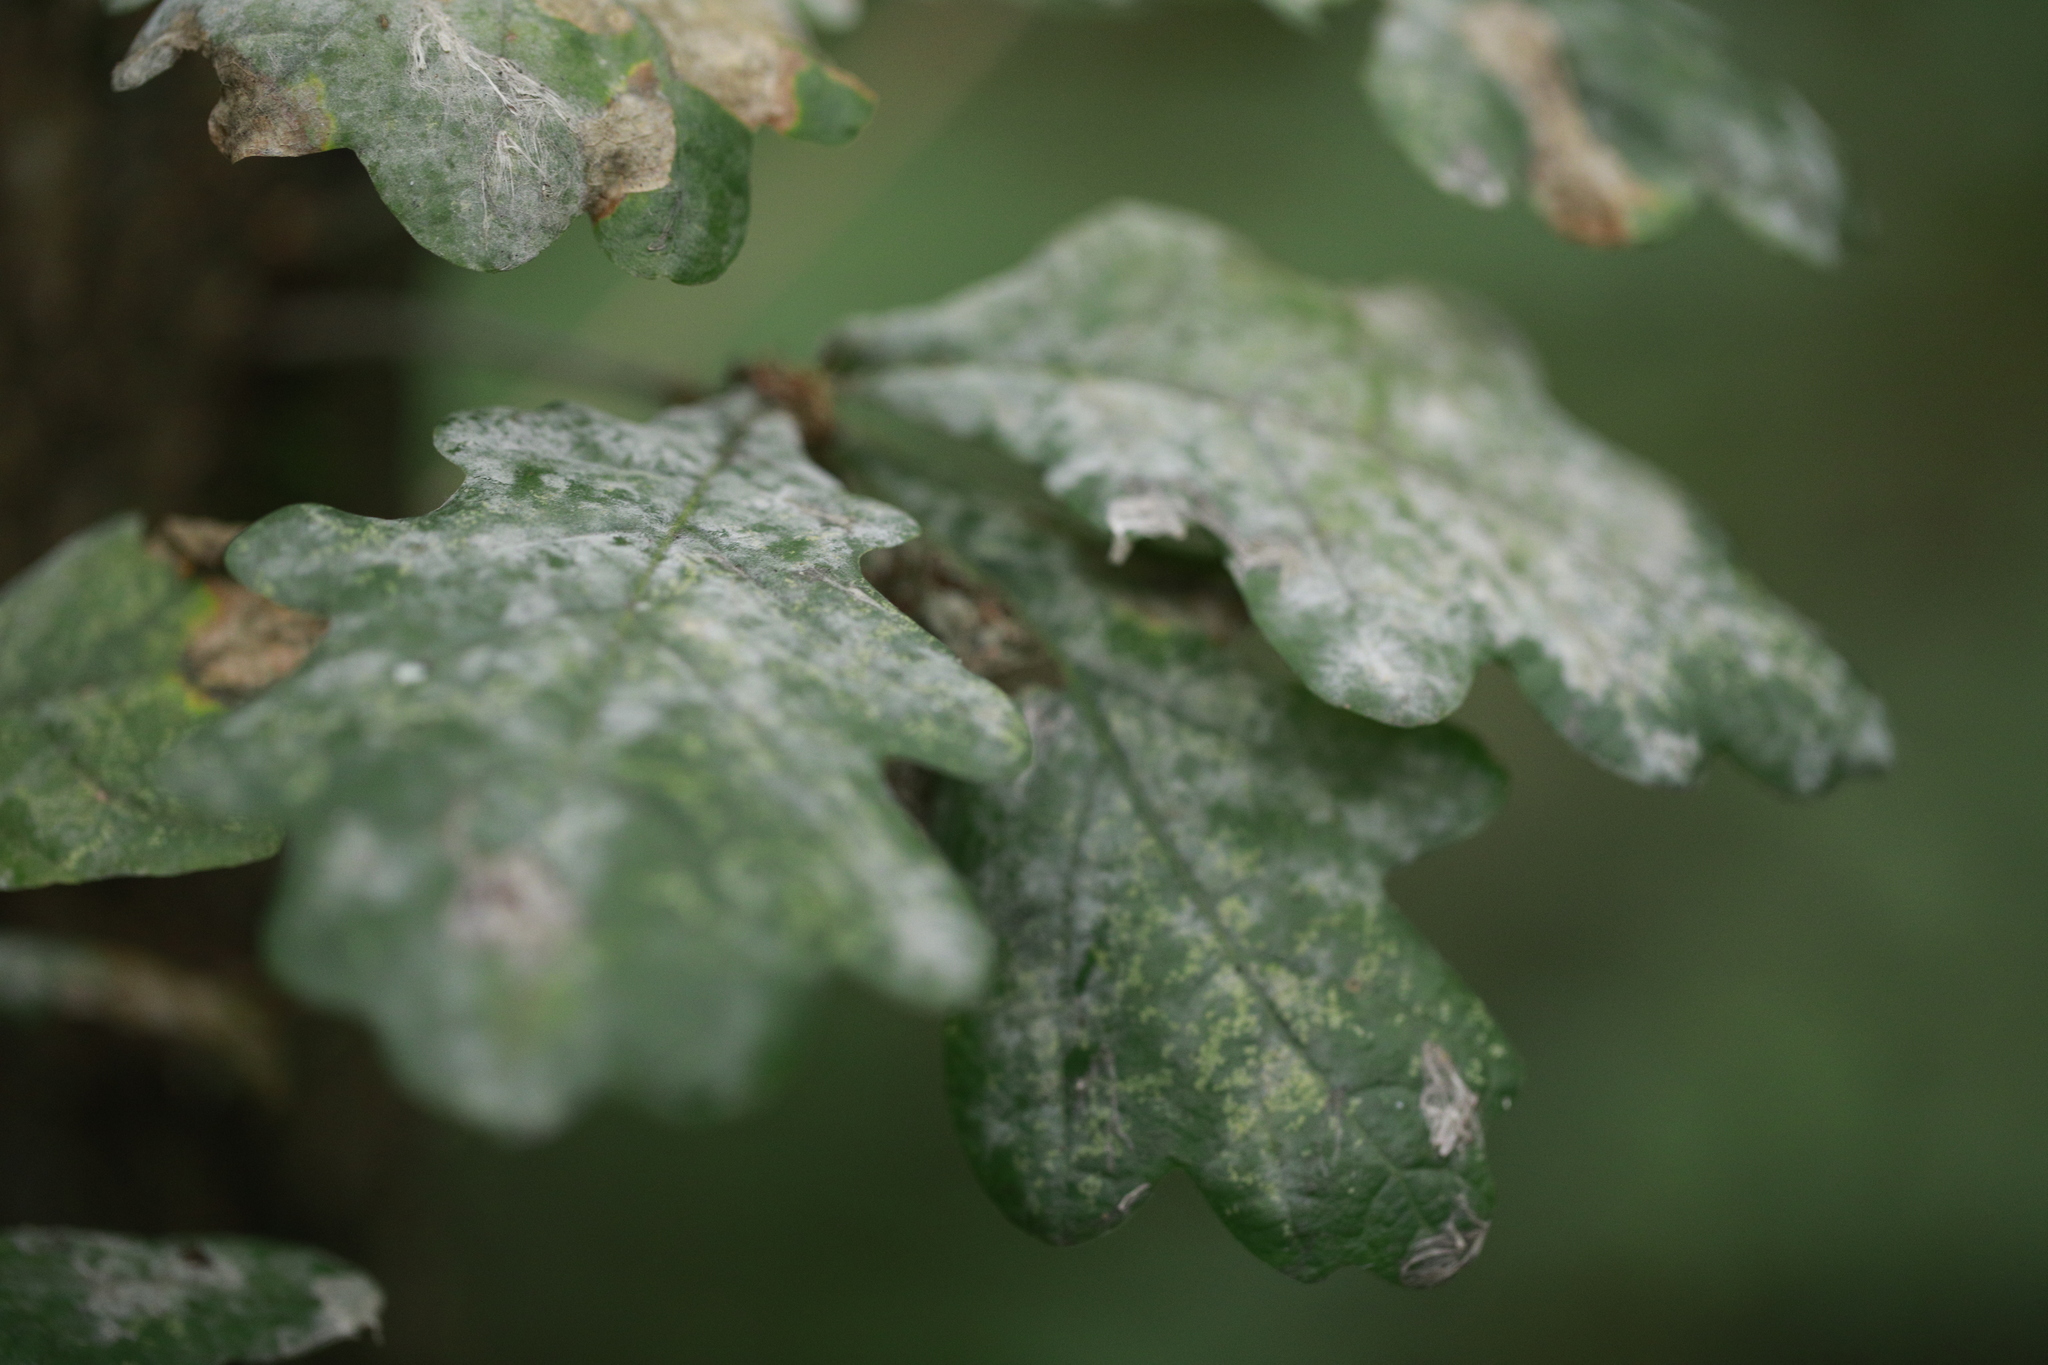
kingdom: Fungi
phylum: Ascomycota
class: Leotiomycetes
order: Helotiales
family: Erysiphaceae
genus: Erysiphe
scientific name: Erysiphe alphitoides
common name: Oak mildew
